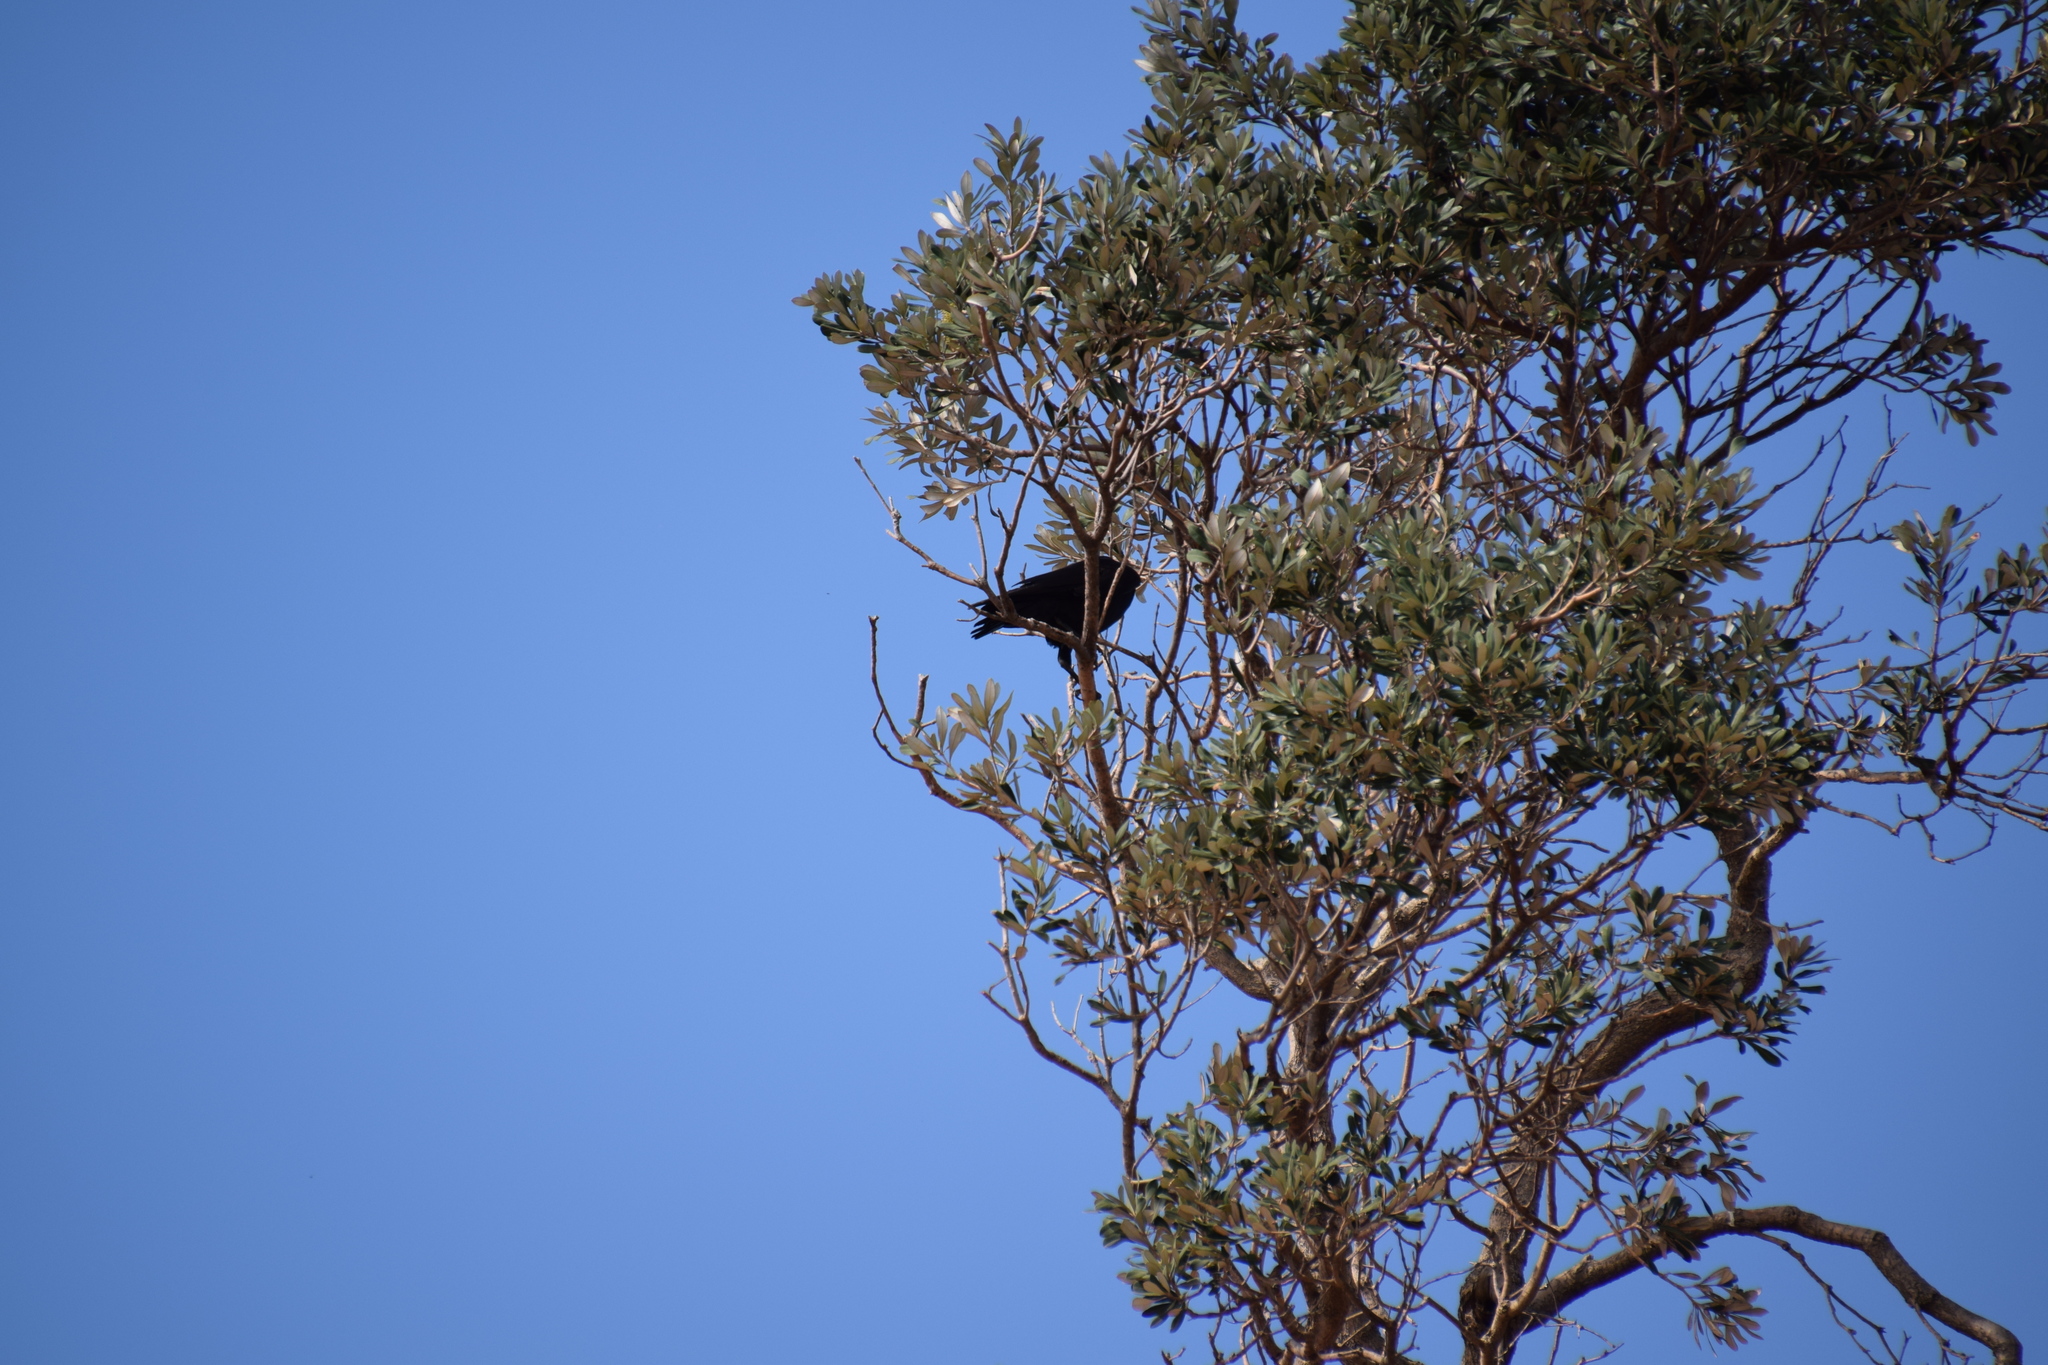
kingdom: Animalia
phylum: Chordata
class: Aves
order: Passeriformes
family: Corvidae
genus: Corvus
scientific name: Corvus coronoides
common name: Australian raven
